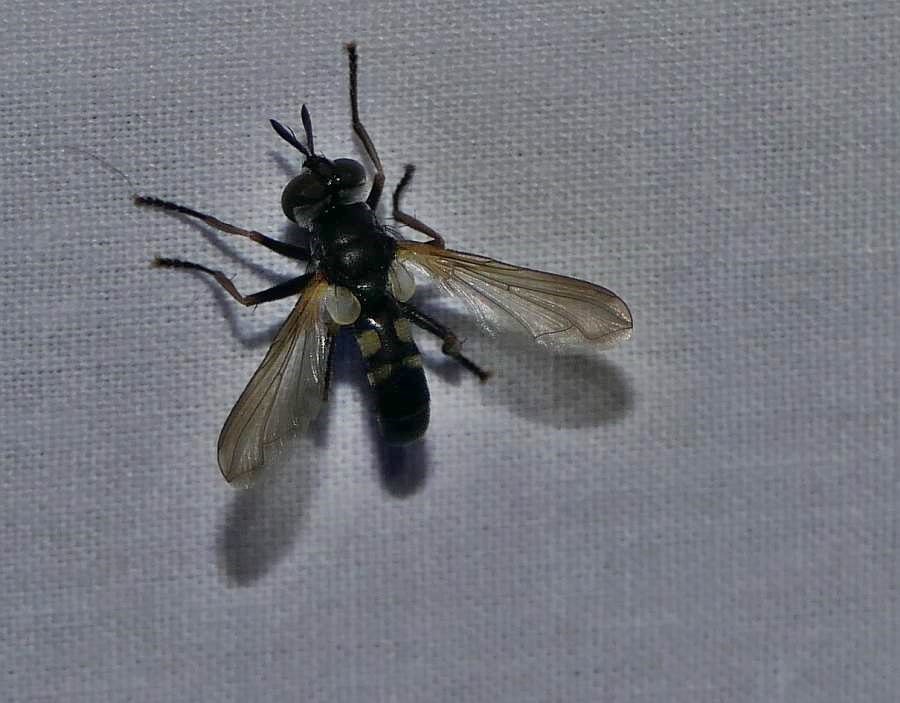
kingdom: Animalia
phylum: Arthropoda
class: Insecta
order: Diptera
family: Tachinidae
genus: Hemyda
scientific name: Hemyda aurata
